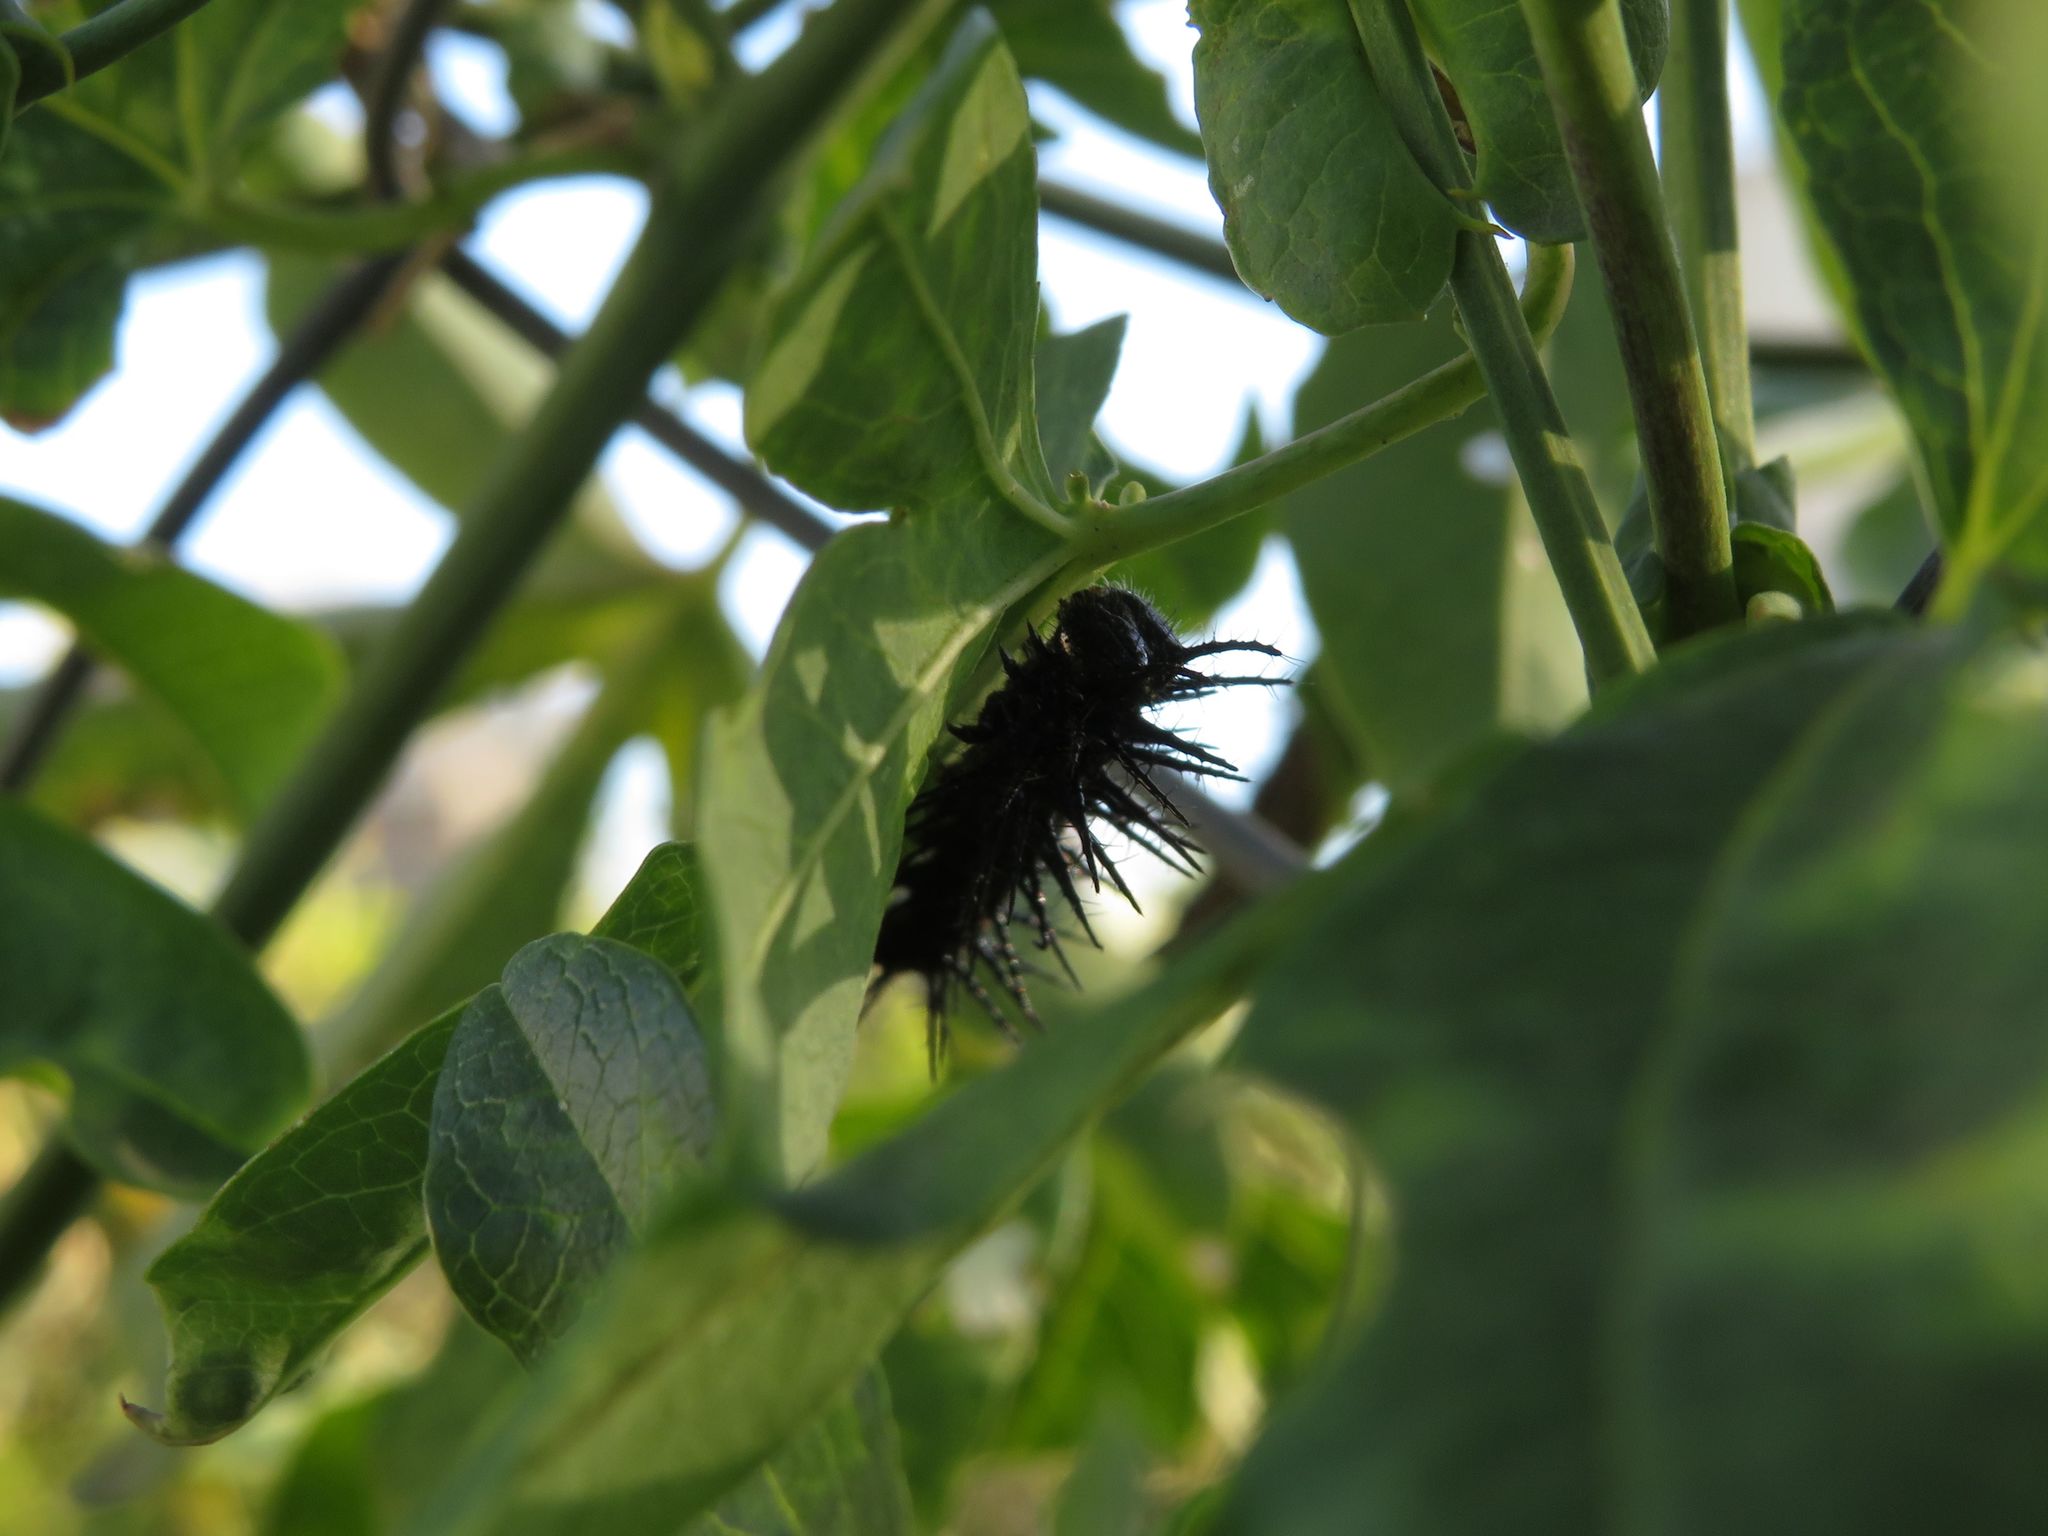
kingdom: Animalia
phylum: Arthropoda
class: Insecta
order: Lepidoptera
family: Nymphalidae
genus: Dione
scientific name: Dione vanillae
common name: Gulf fritillary
